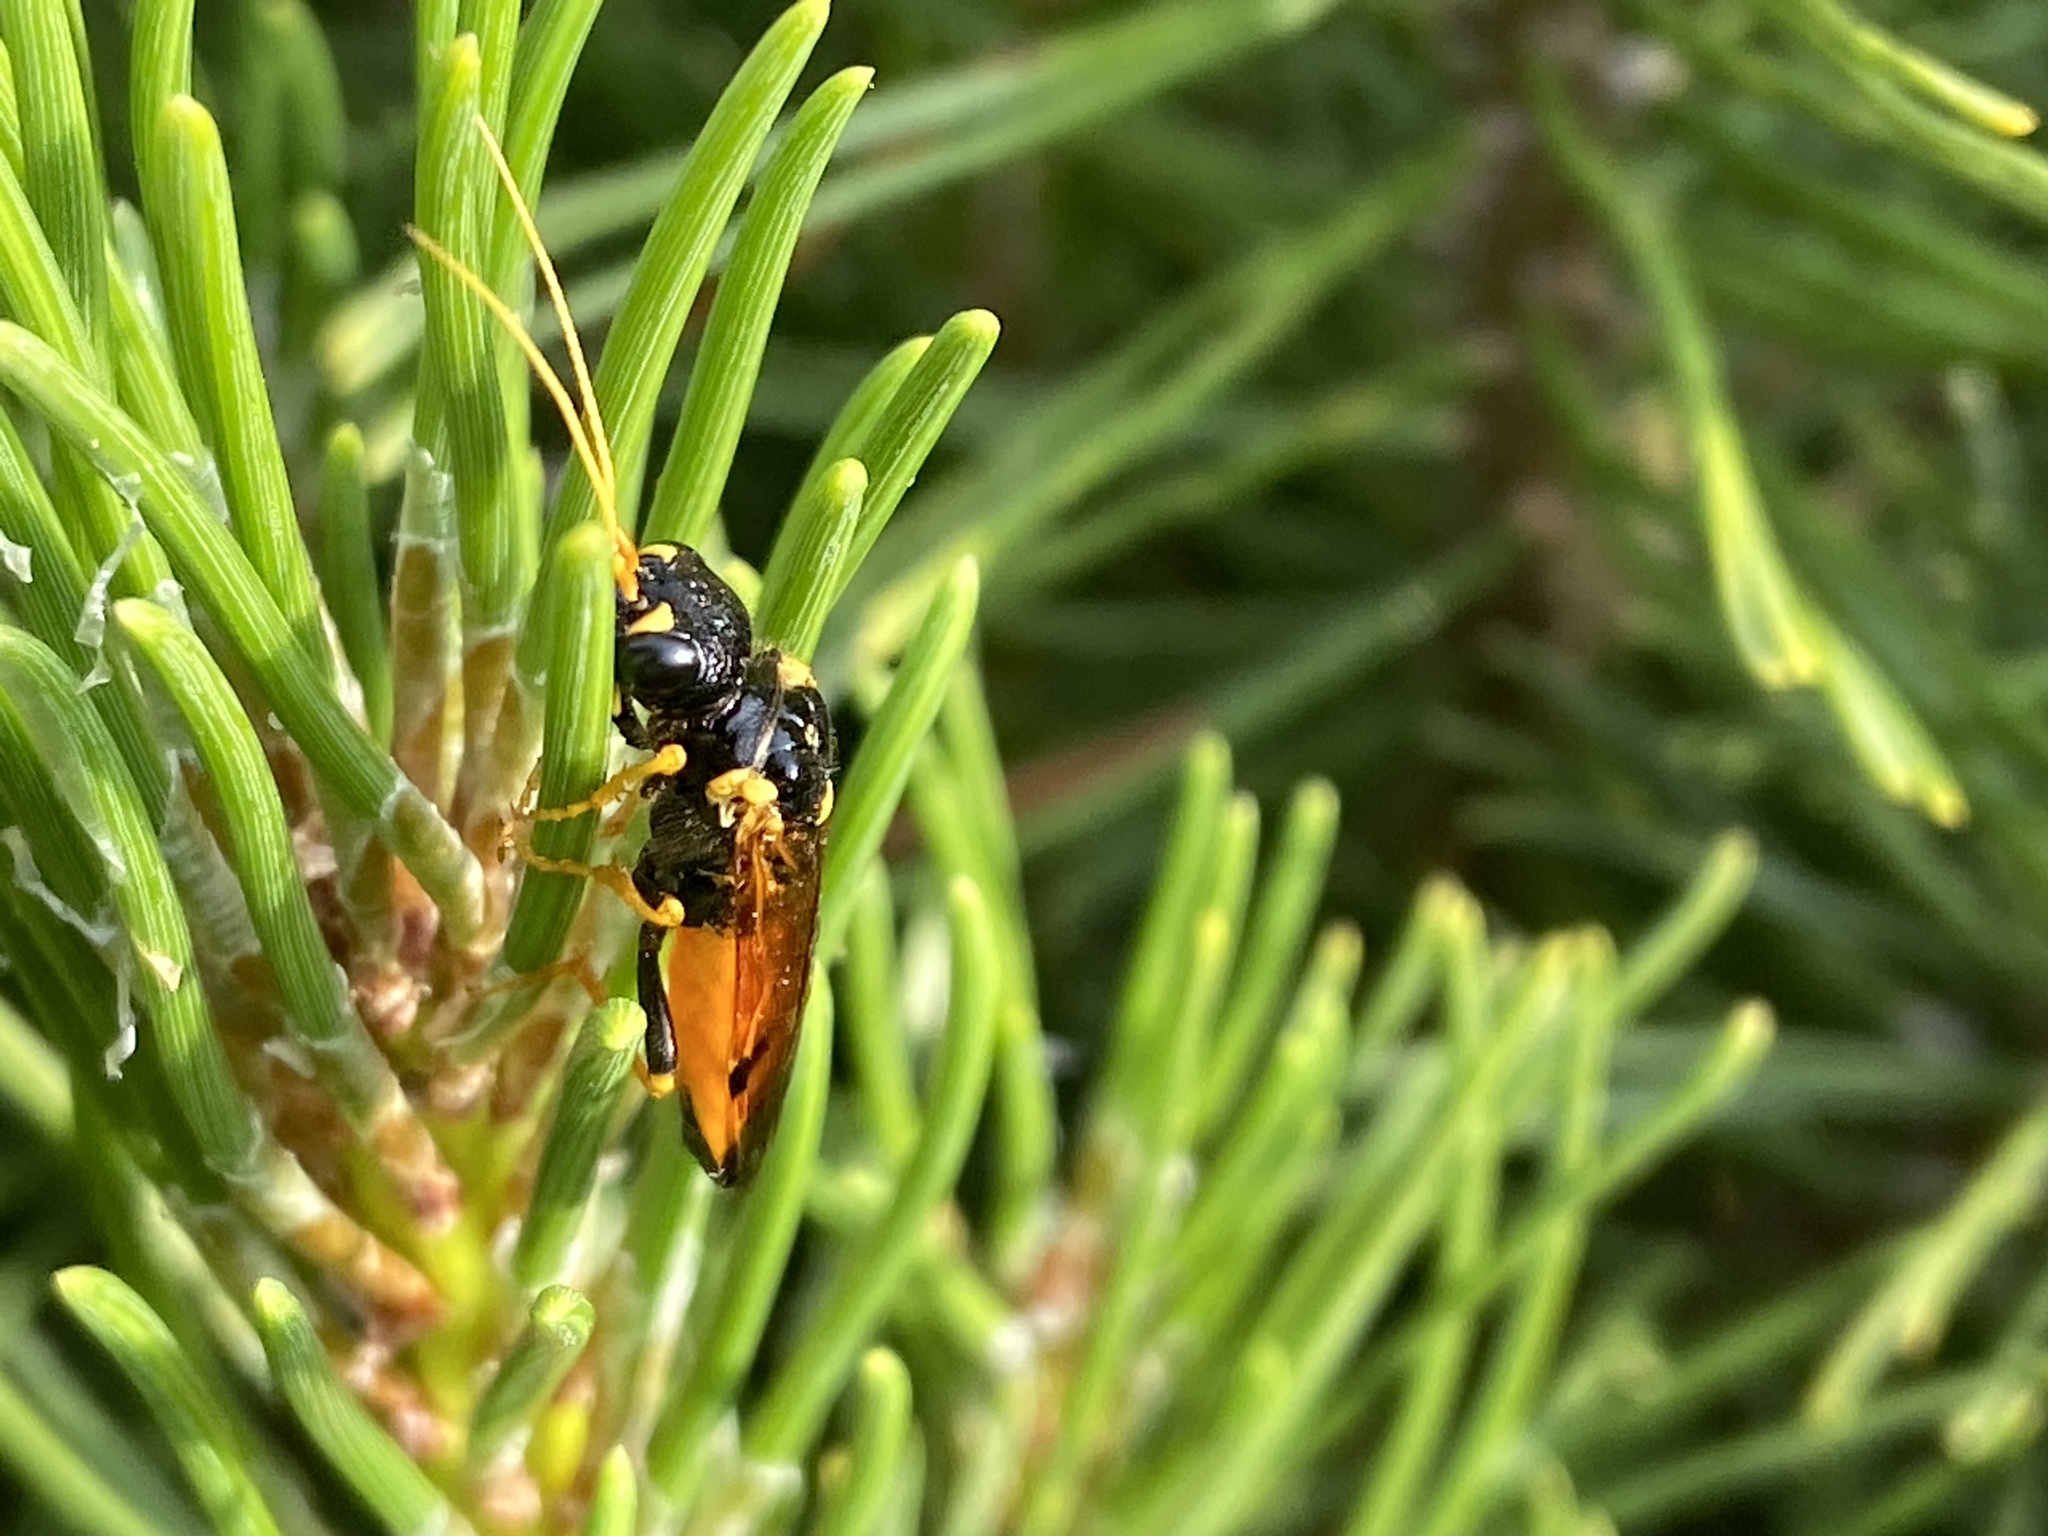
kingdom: Animalia
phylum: Arthropoda
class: Insecta
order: Hymenoptera
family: Pamphiliidae
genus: Acantholyda
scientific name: Acantholyda hieroglyphica
